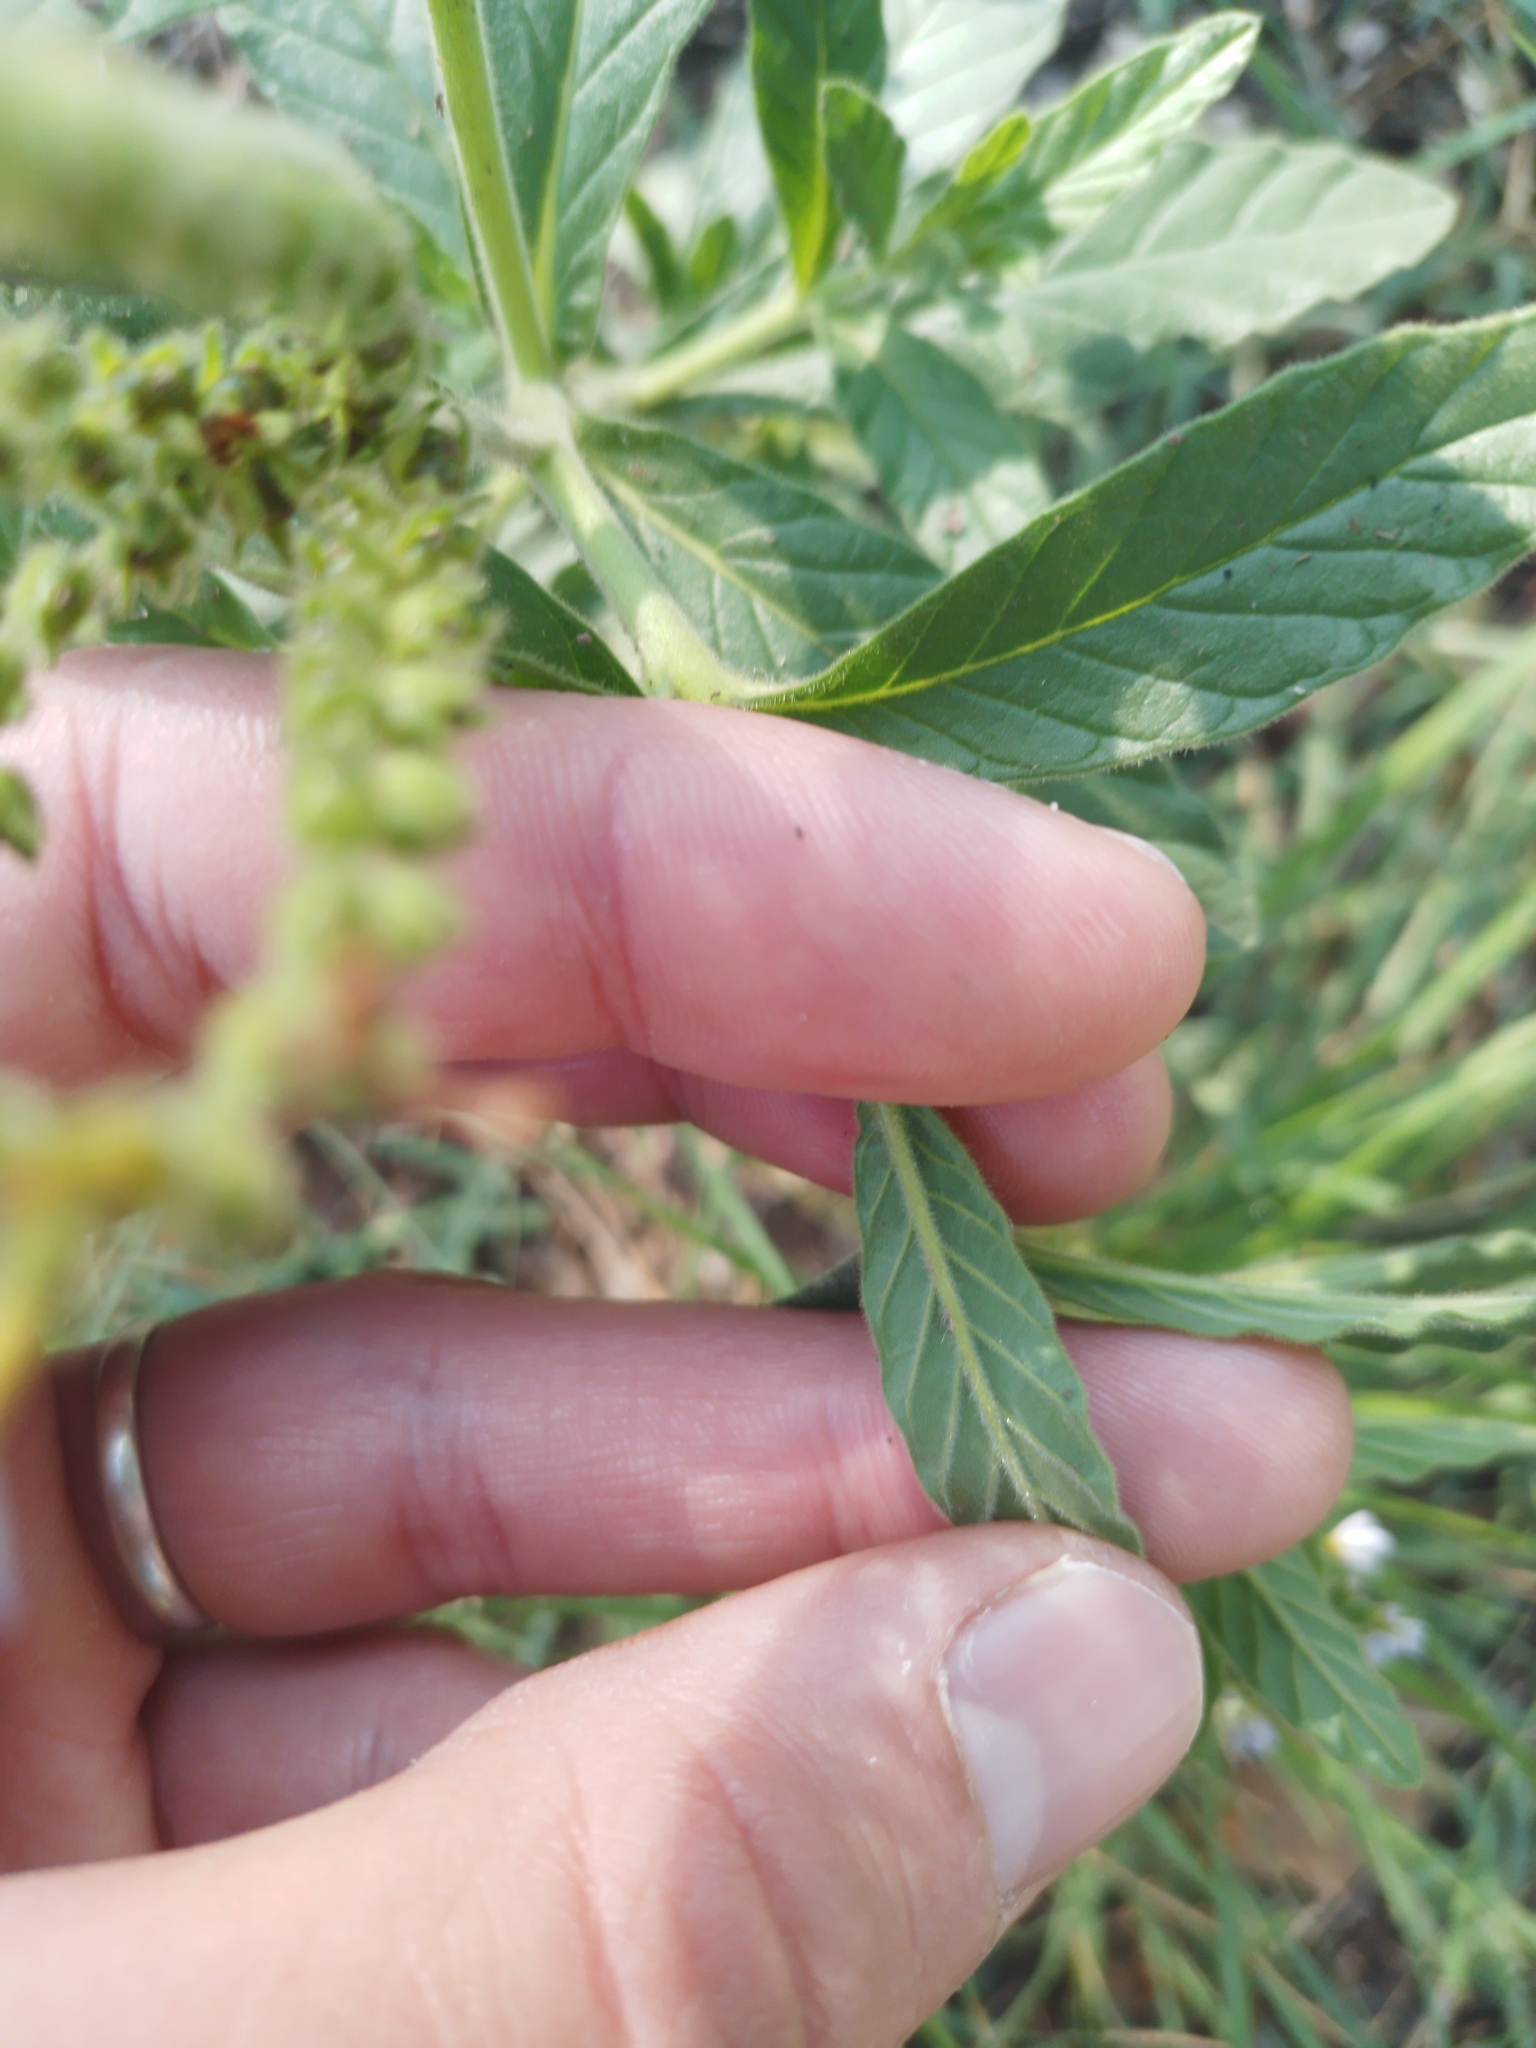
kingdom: Plantae
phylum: Tracheophyta
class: Magnoliopsida
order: Boraginales
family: Heliotropiaceae
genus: Heliotropium
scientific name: Heliotropium amplexicaule
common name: Clasping heliotrope
